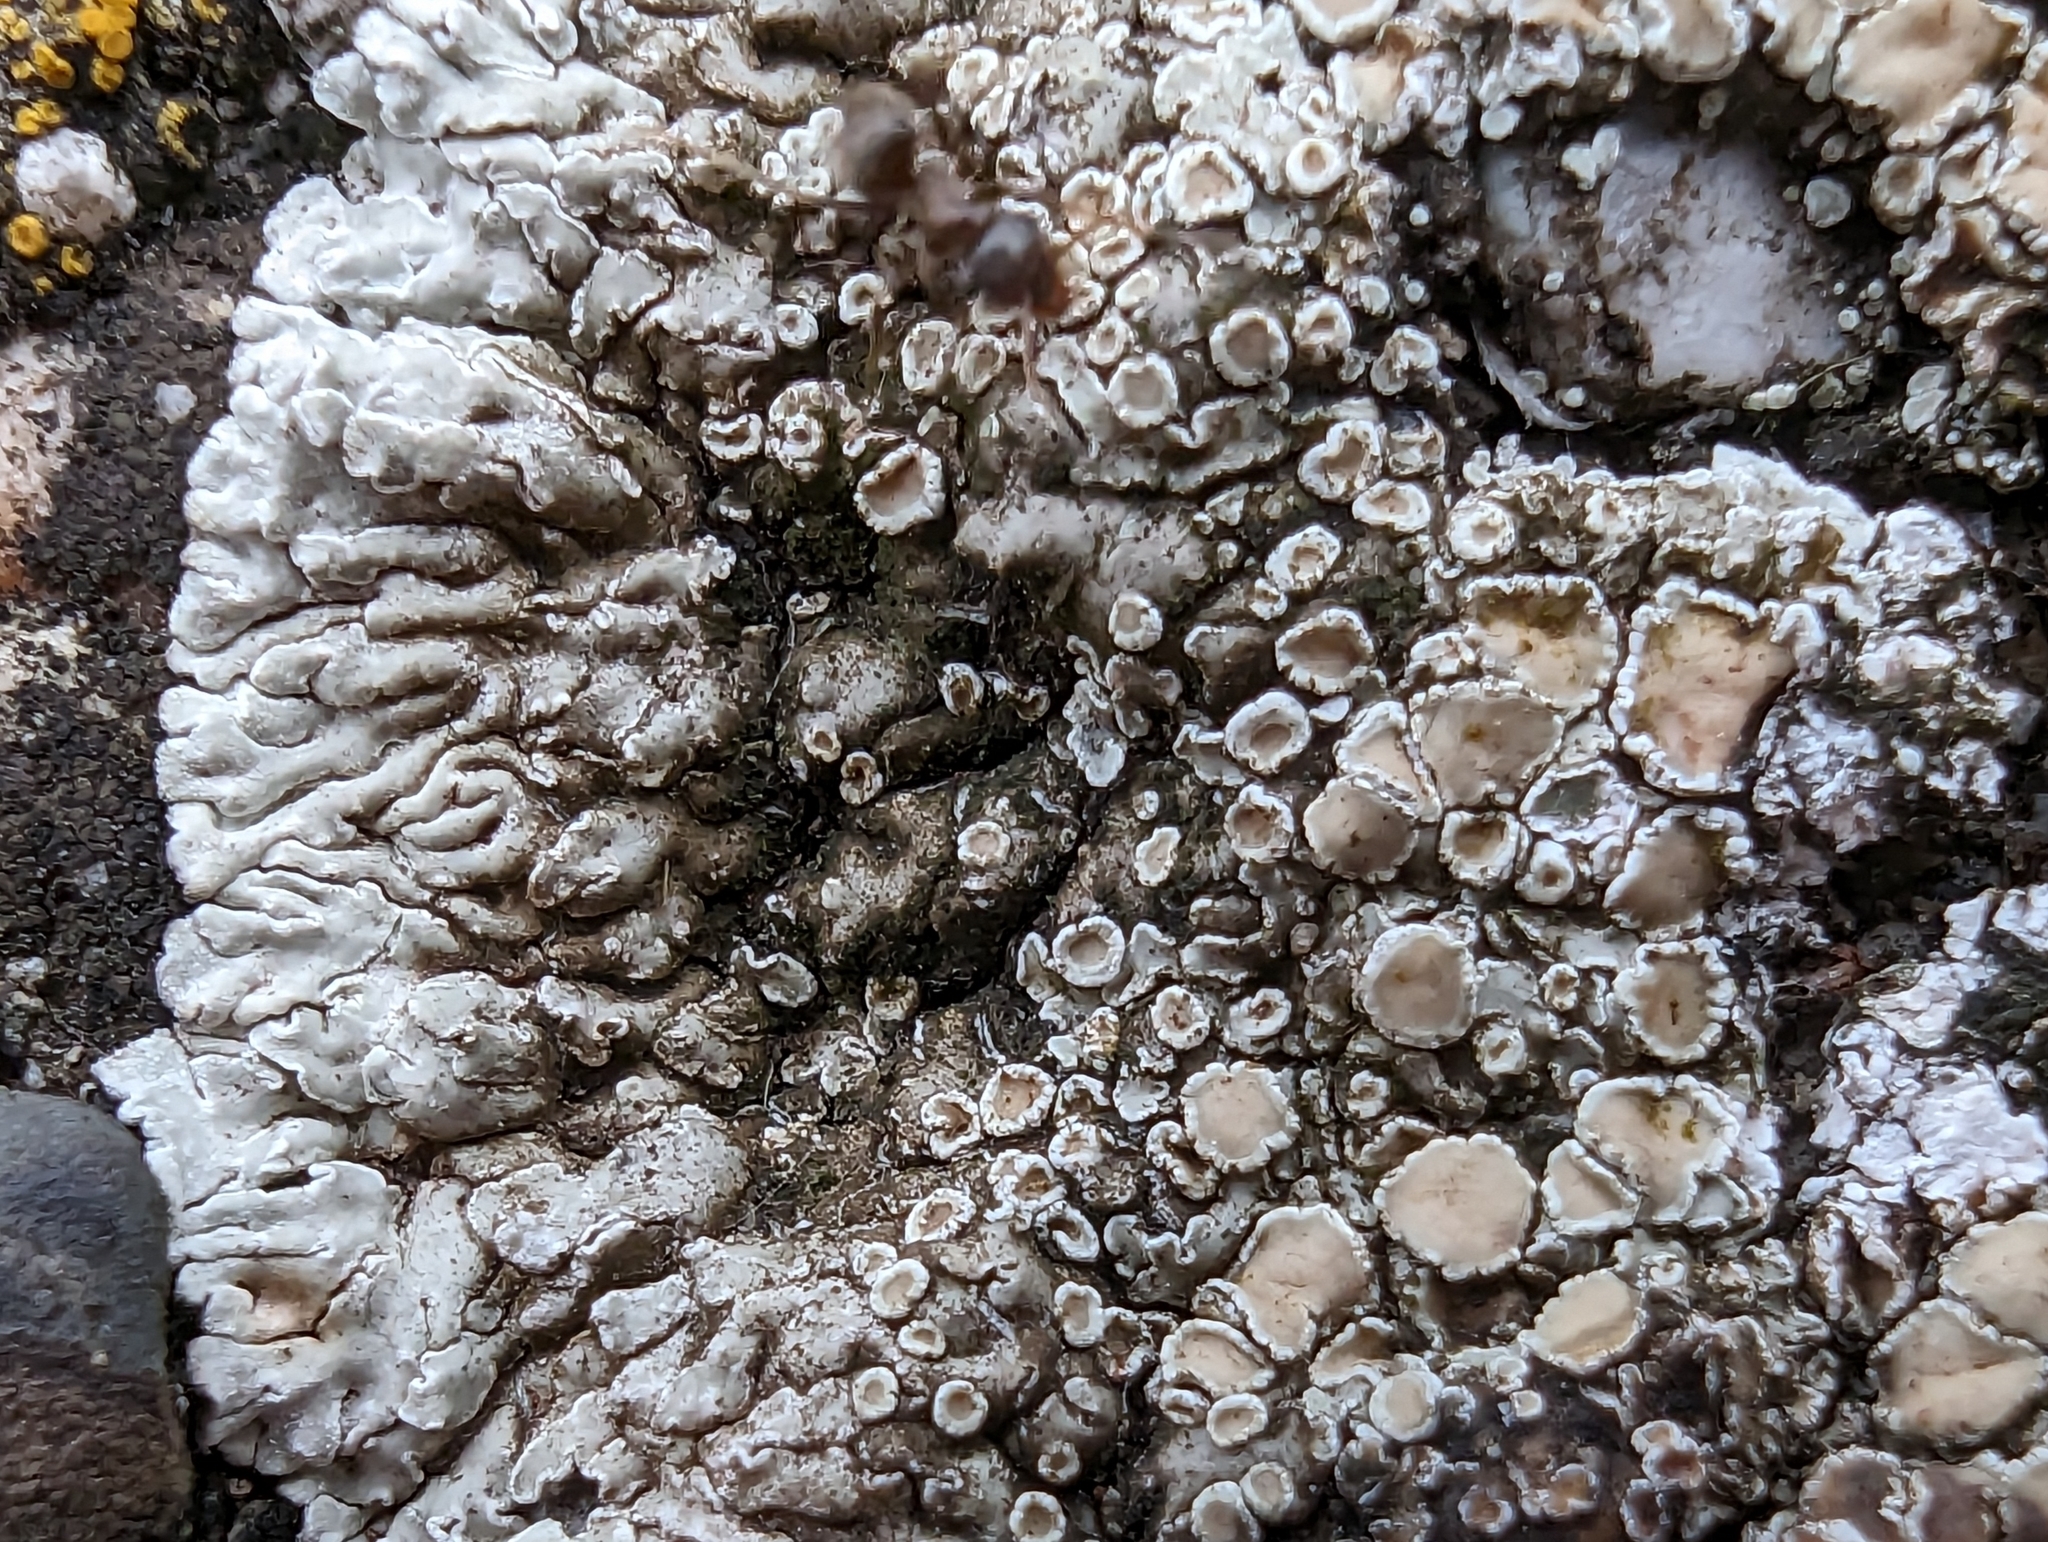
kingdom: Fungi
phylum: Ascomycota
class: Lecanoromycetes
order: Lecanorales
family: Lecanoraceae
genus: Protoparmeliopsis
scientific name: Protoparmeliopsis muralis
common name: Stonewall rim lichen
